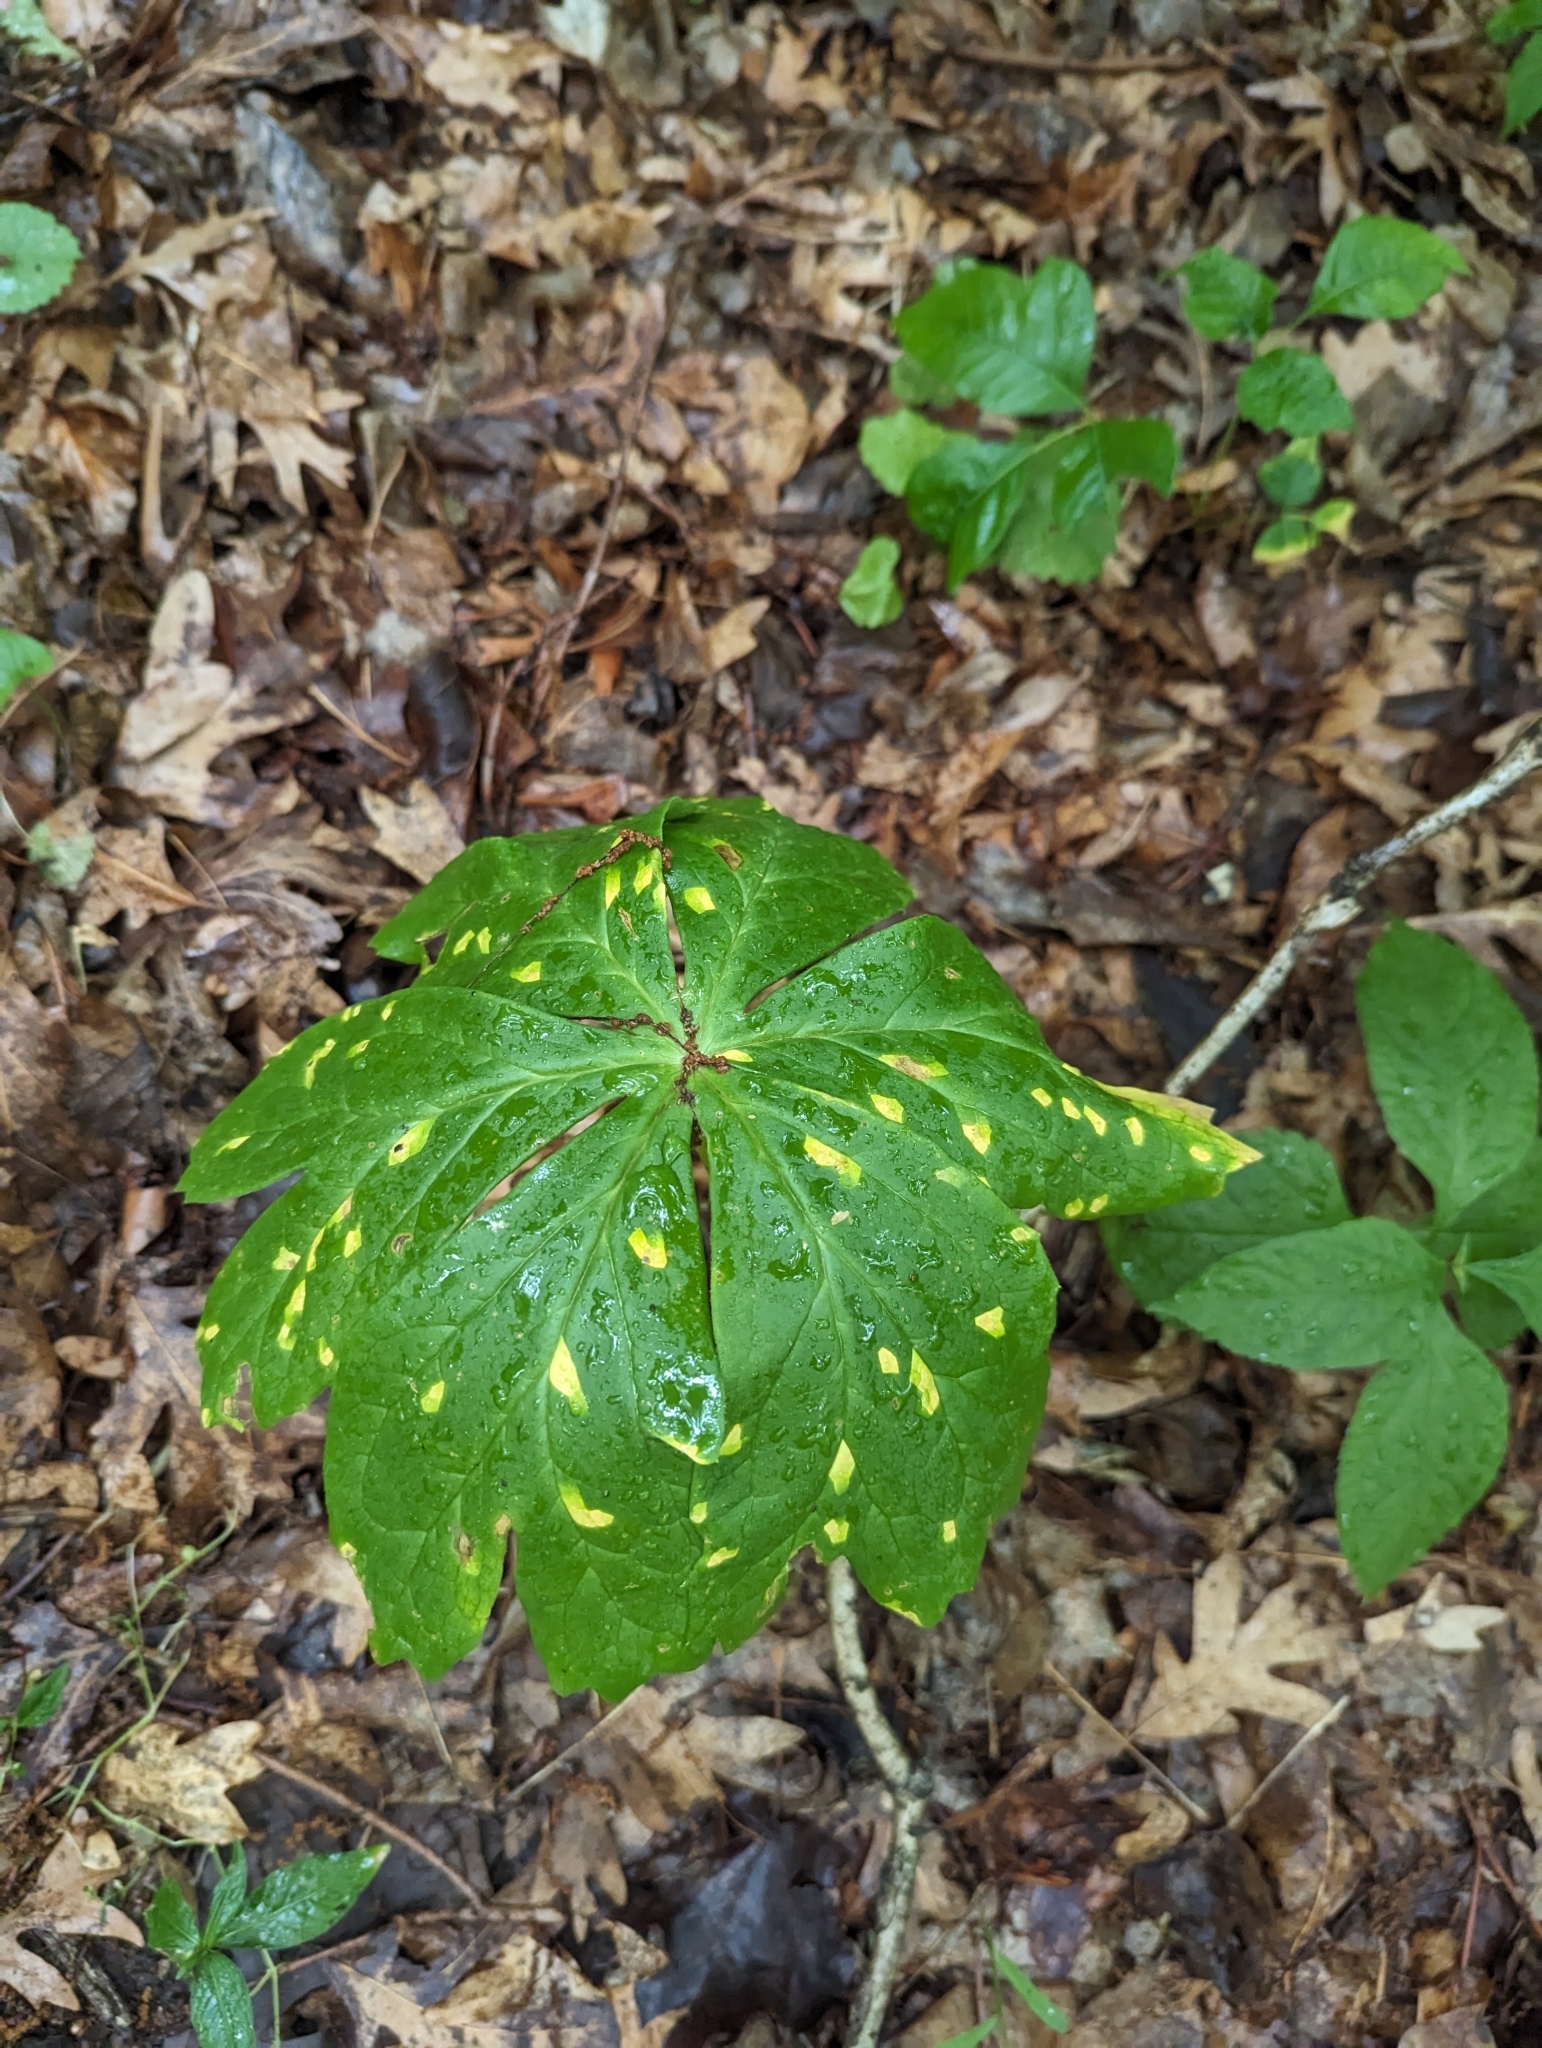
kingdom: Fungi
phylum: Basidiomycota
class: Pucciniomycetes
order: Pucciniales
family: Pucciniaceae
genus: Puccinia
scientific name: Puccinia podophylli
